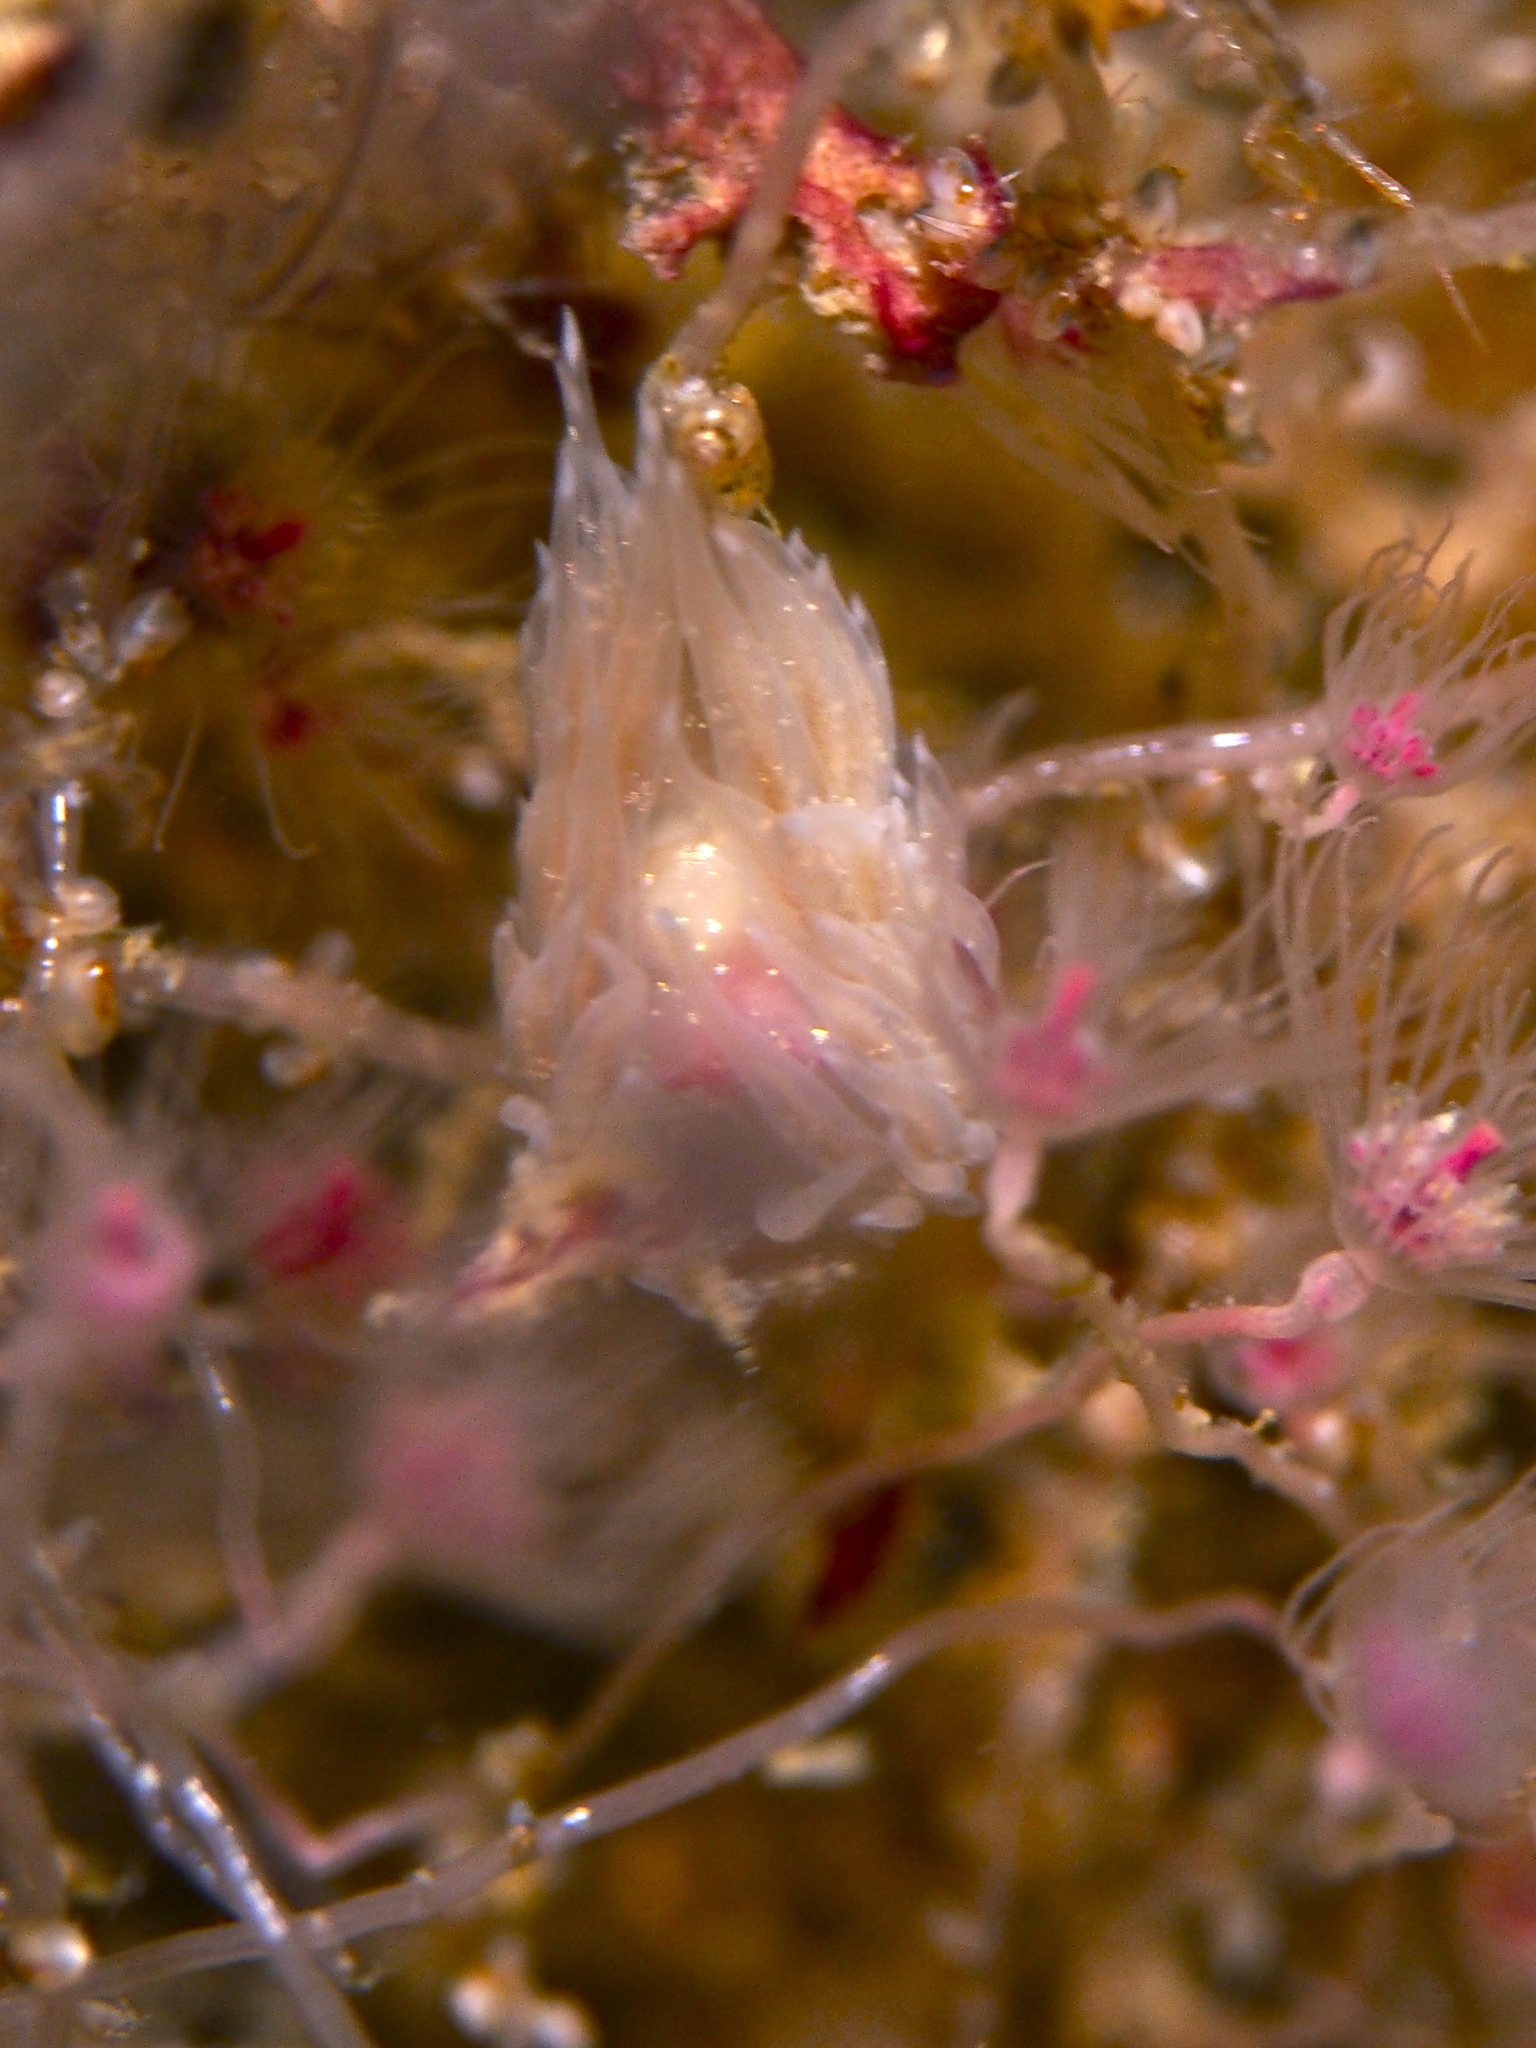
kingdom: Animalia
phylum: Mollusca
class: Gastropoda
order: Nudibranchia
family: Cumanotidae
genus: Cumanotus
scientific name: Cumanotus beaumonti
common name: Polyp aeolis
